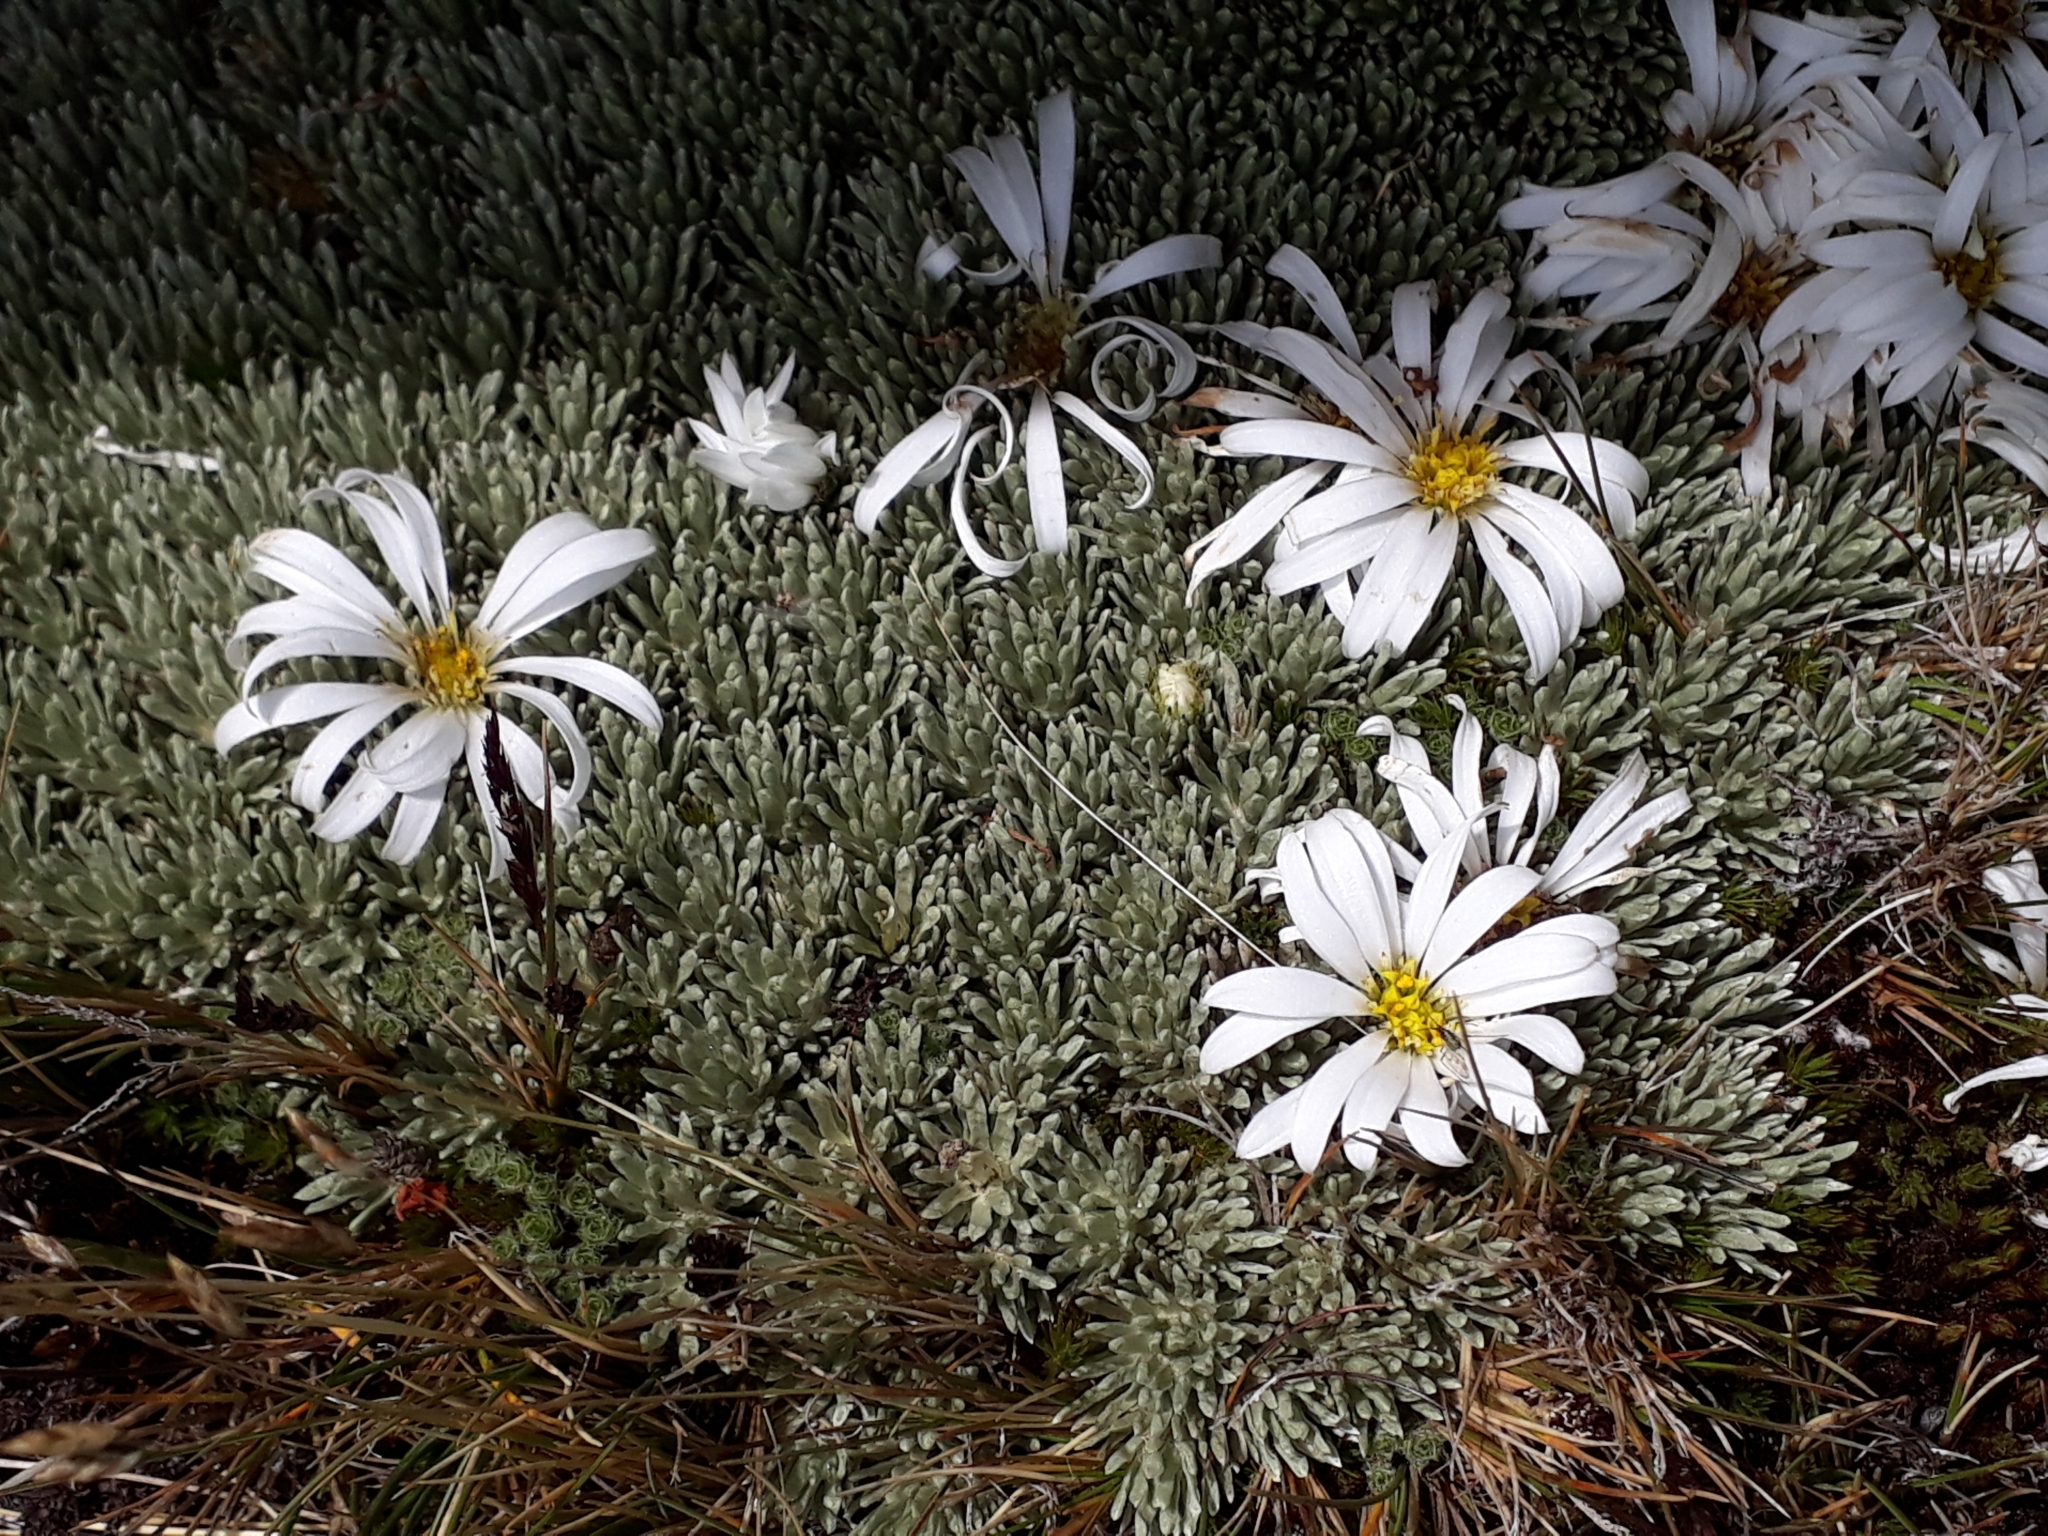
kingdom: Plantae
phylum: Tracheophyta
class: Magnoliopsida
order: Asterales
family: Asteraceae
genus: Celmisia
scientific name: Celmisia sessiliflora
